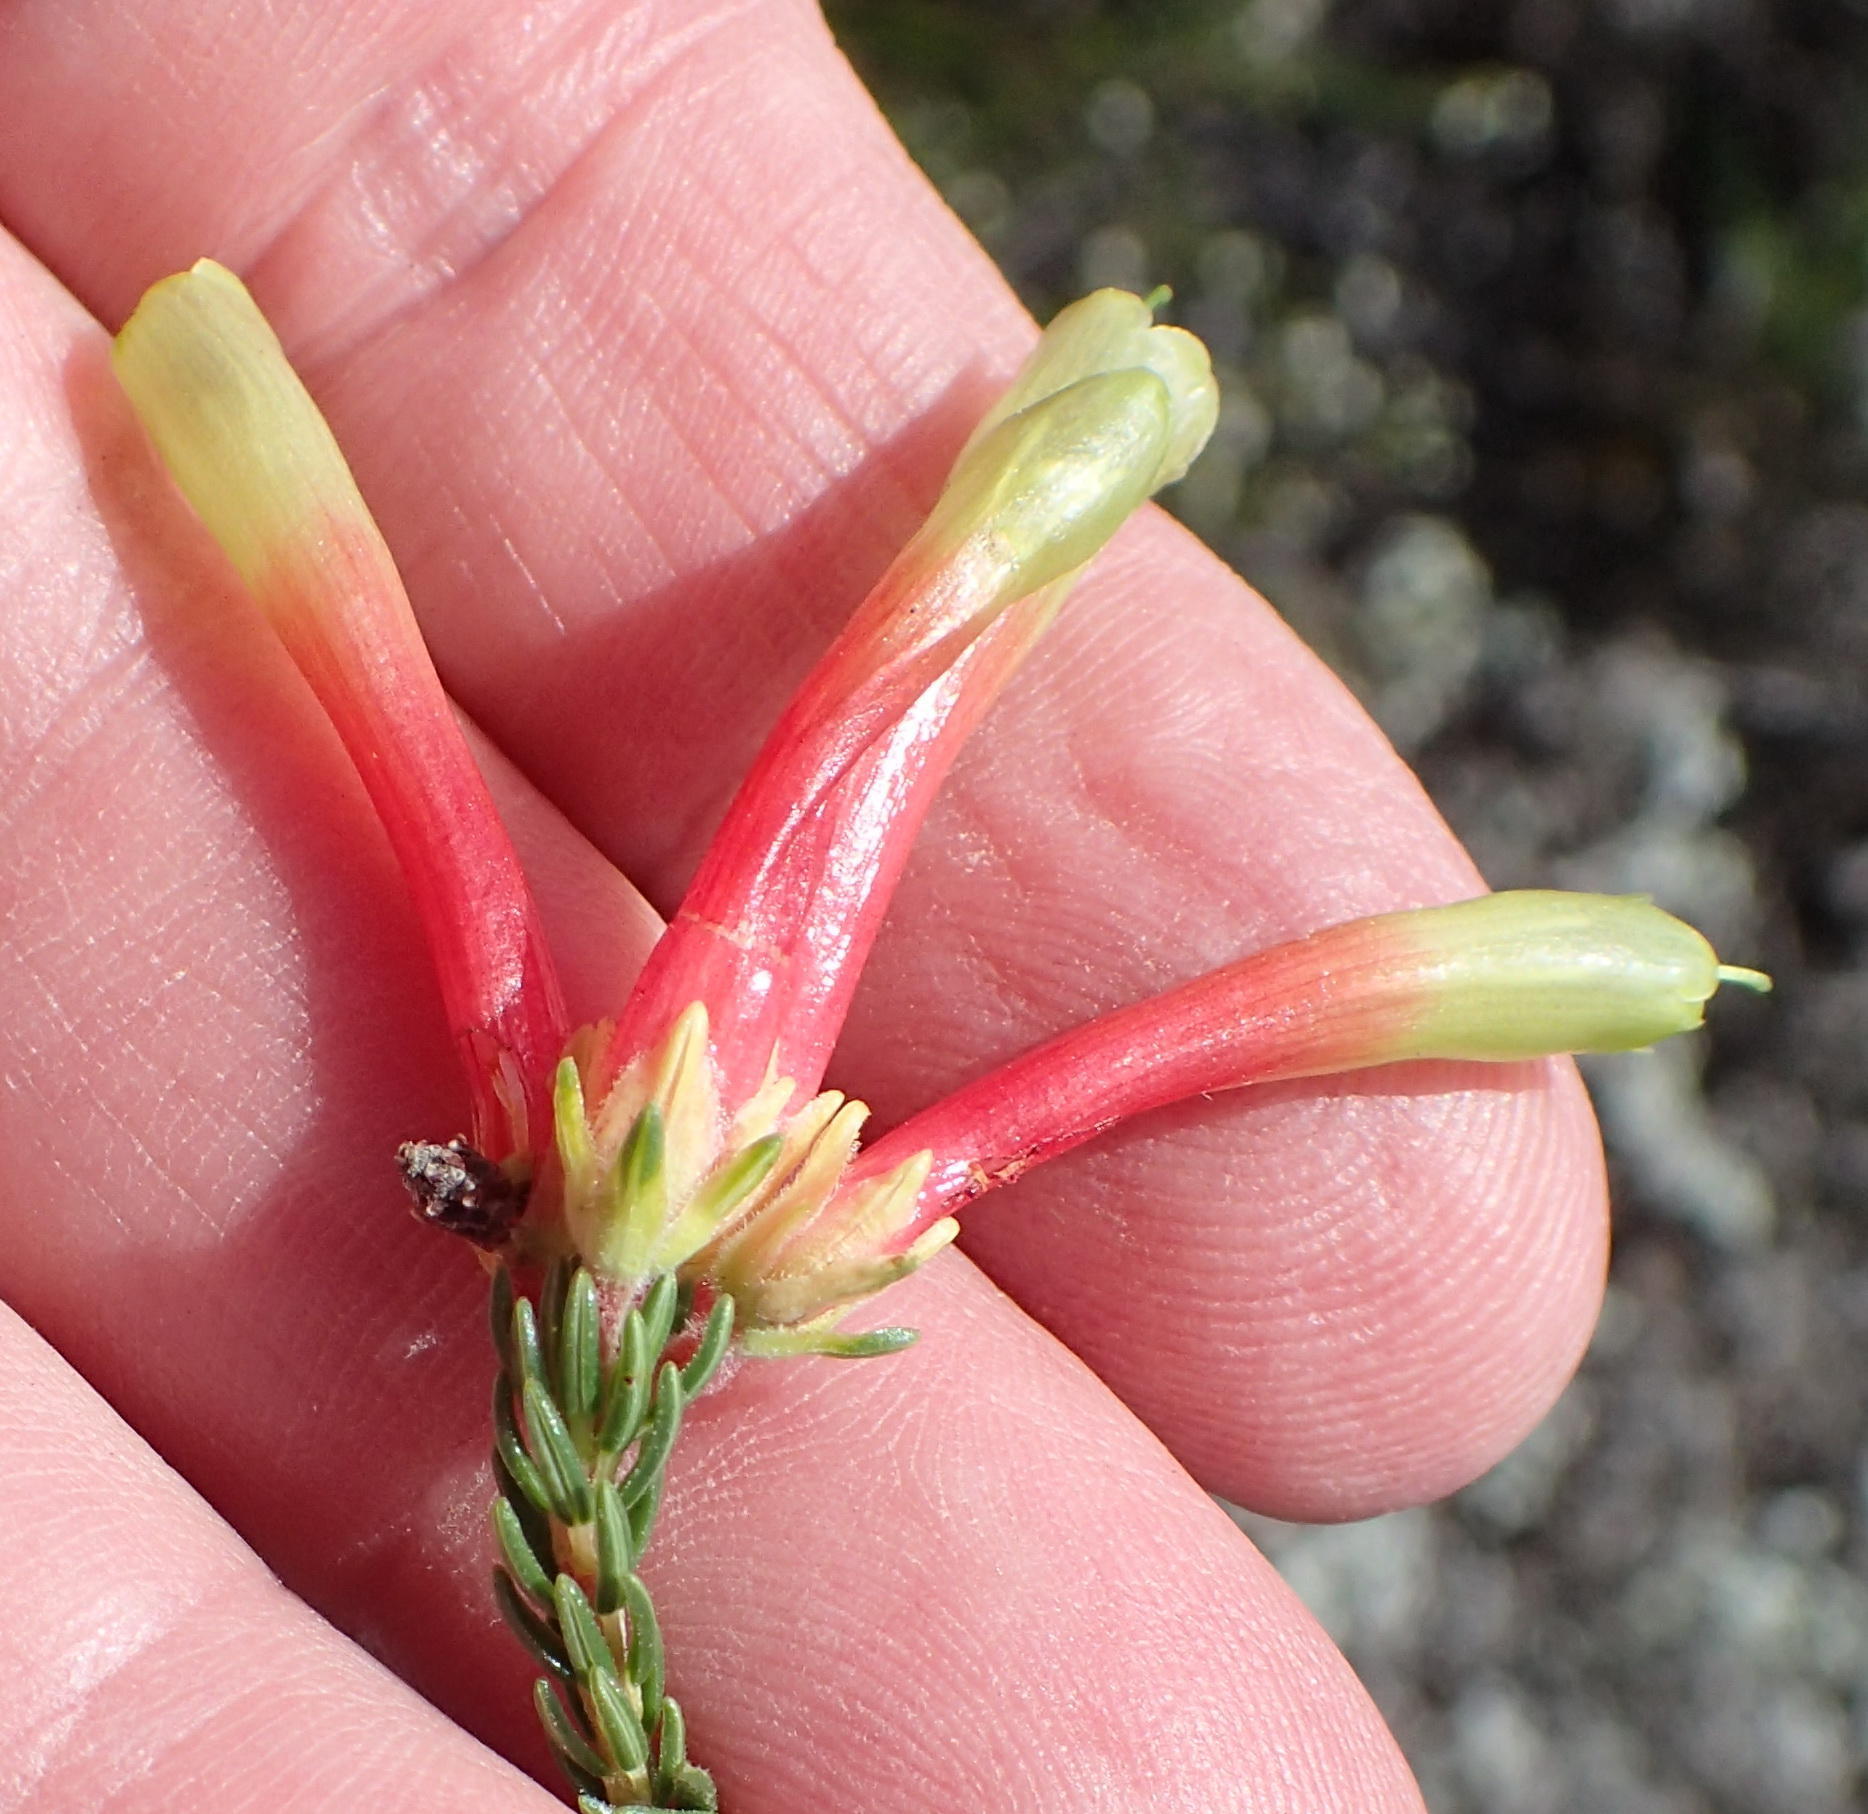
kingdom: Plantae
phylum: Tracheophyta
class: Magnoliopsida
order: Ericales
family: Ericaceae
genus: Erica
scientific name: Erica unicolor
